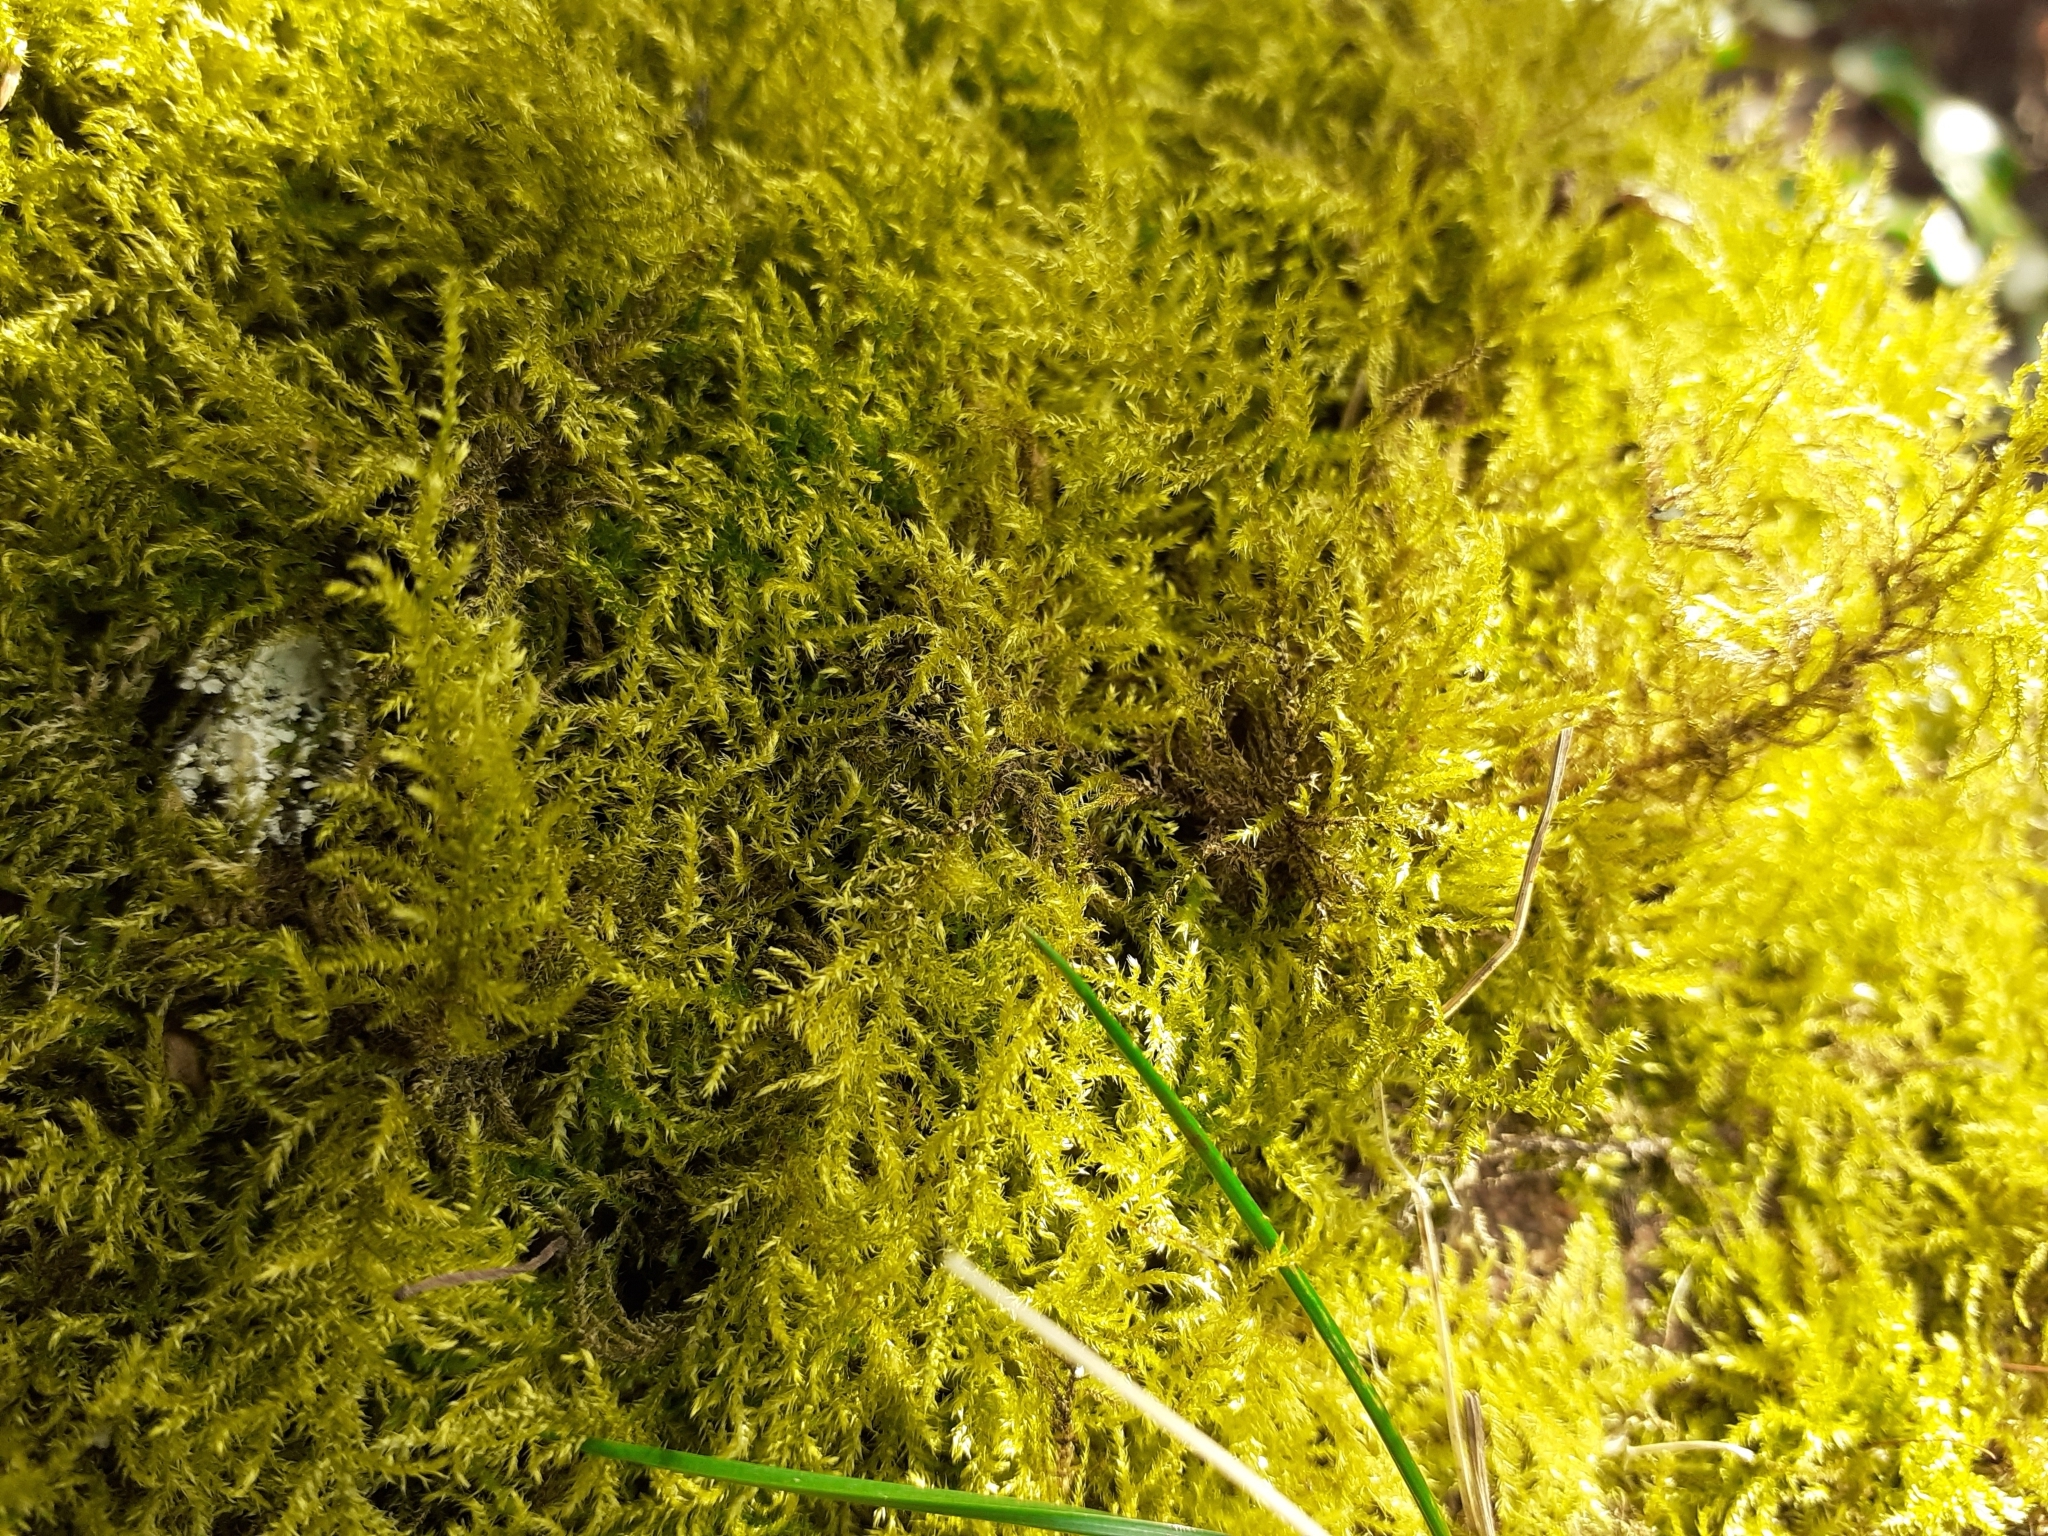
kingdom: Plantae
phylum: Bryophyta
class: Bryopsida
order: Hypnales
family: Brachytheciaceae
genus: Kindbergia
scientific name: Kindbergia praelonga
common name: Slender beaked moss
